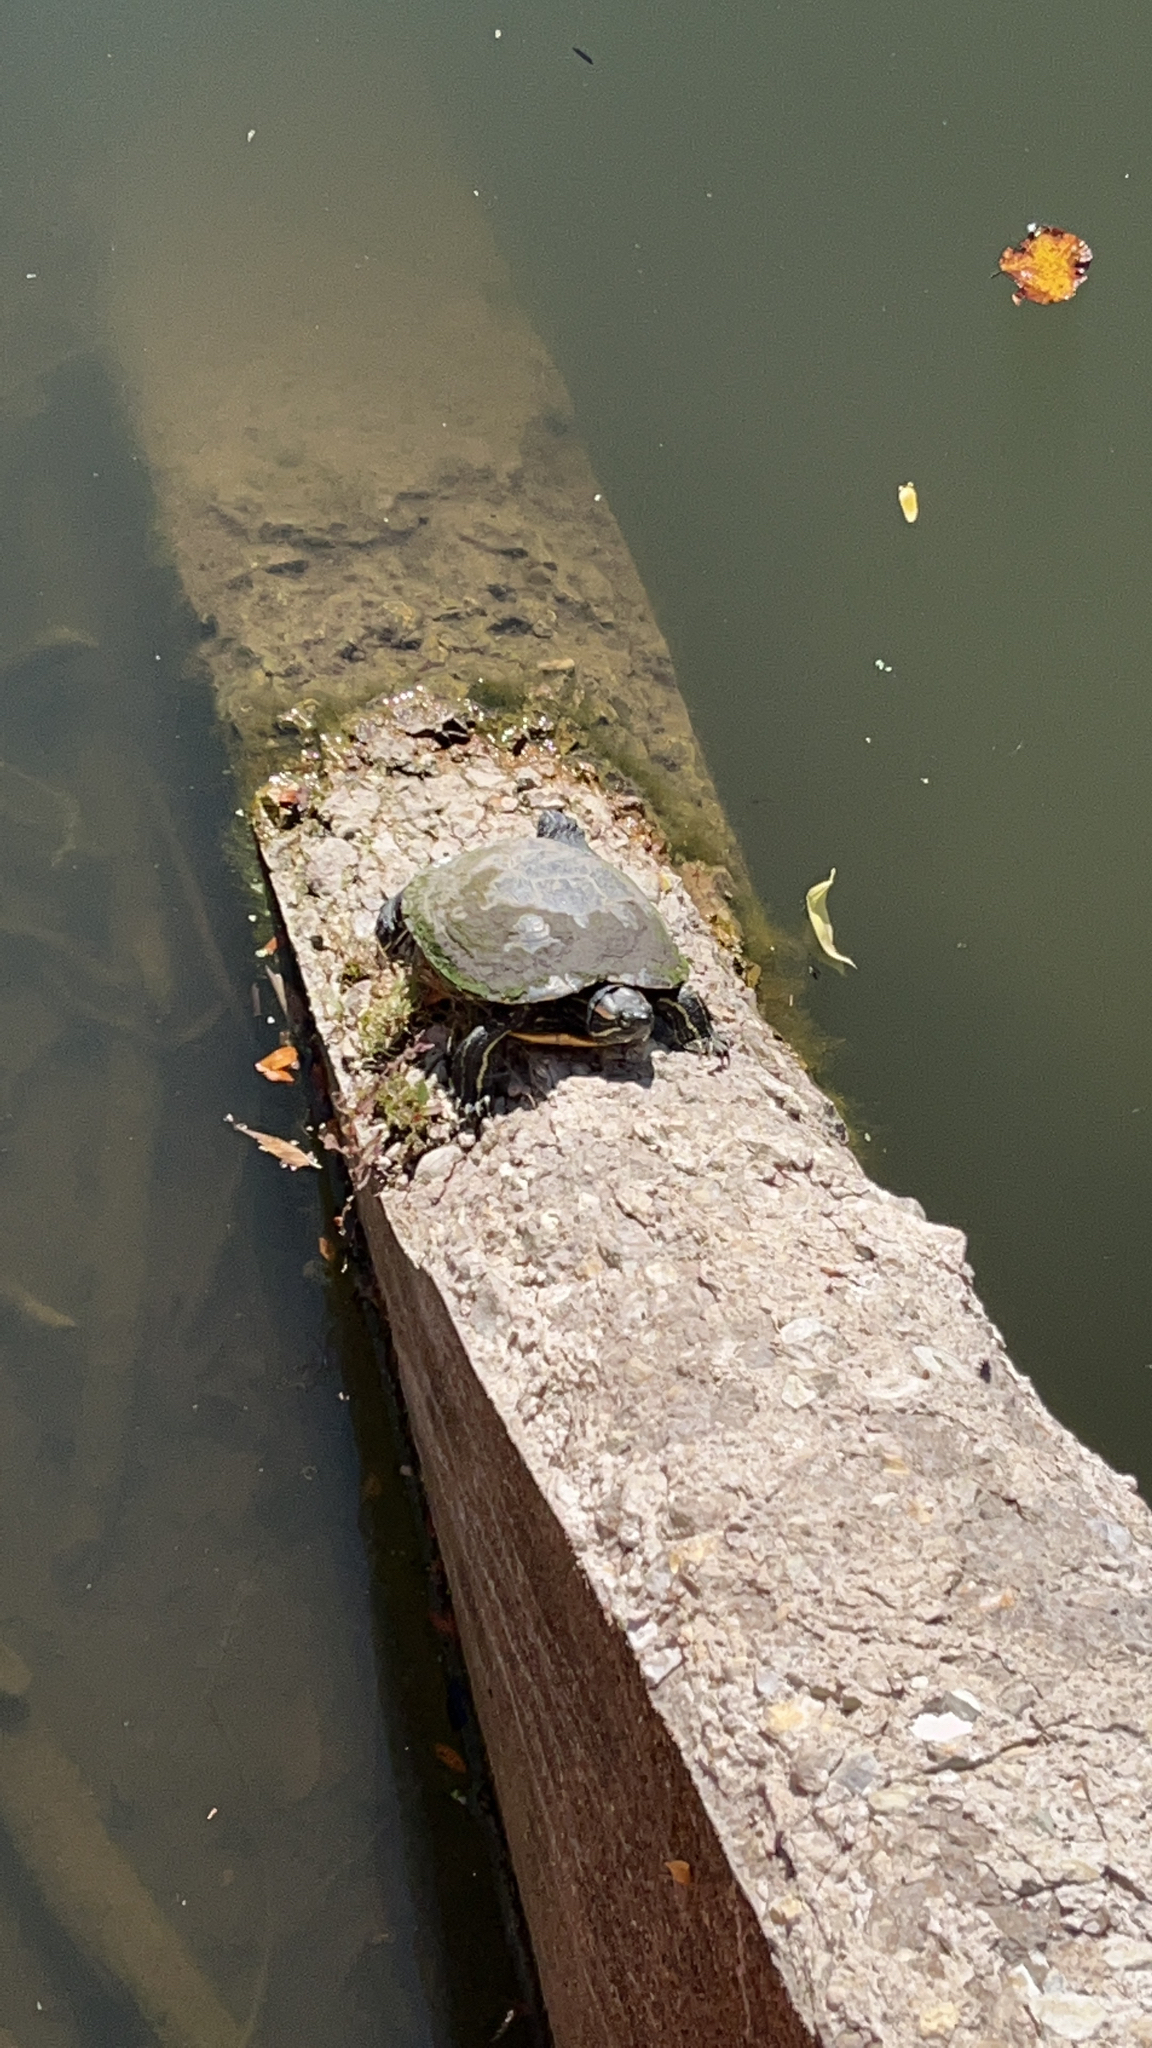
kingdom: Animalia
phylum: Chordata
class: Testudines
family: Emydidae
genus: Trachemys
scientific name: Trachemys scripta
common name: Slider
